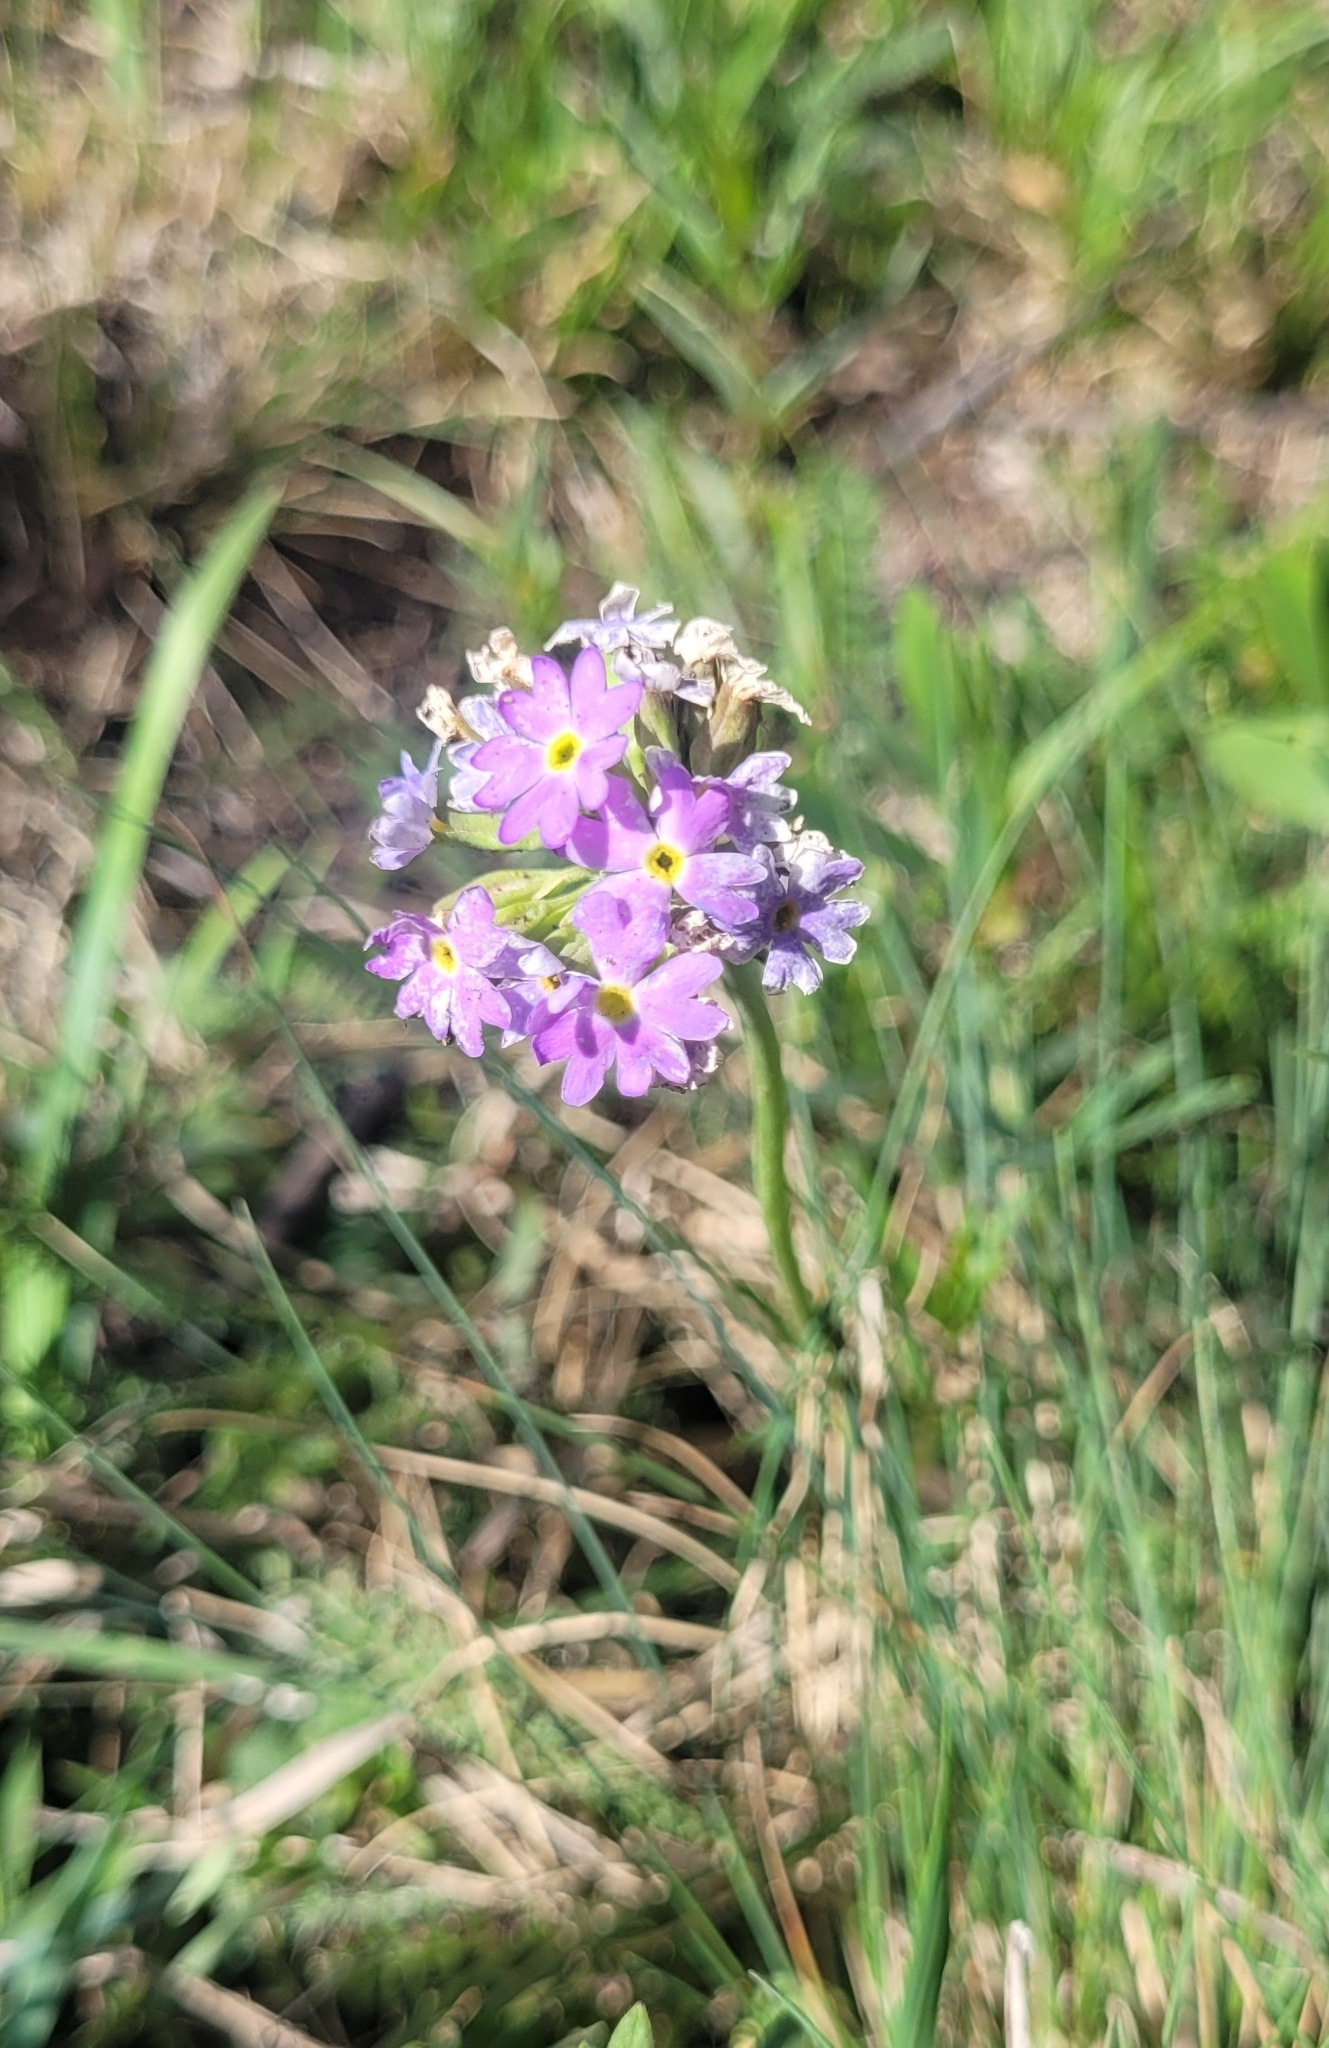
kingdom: Plantae
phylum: Tracheophyta
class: Magnoliopsida
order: Ericales
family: Primulaceae
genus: Primula
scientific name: Primula algida
